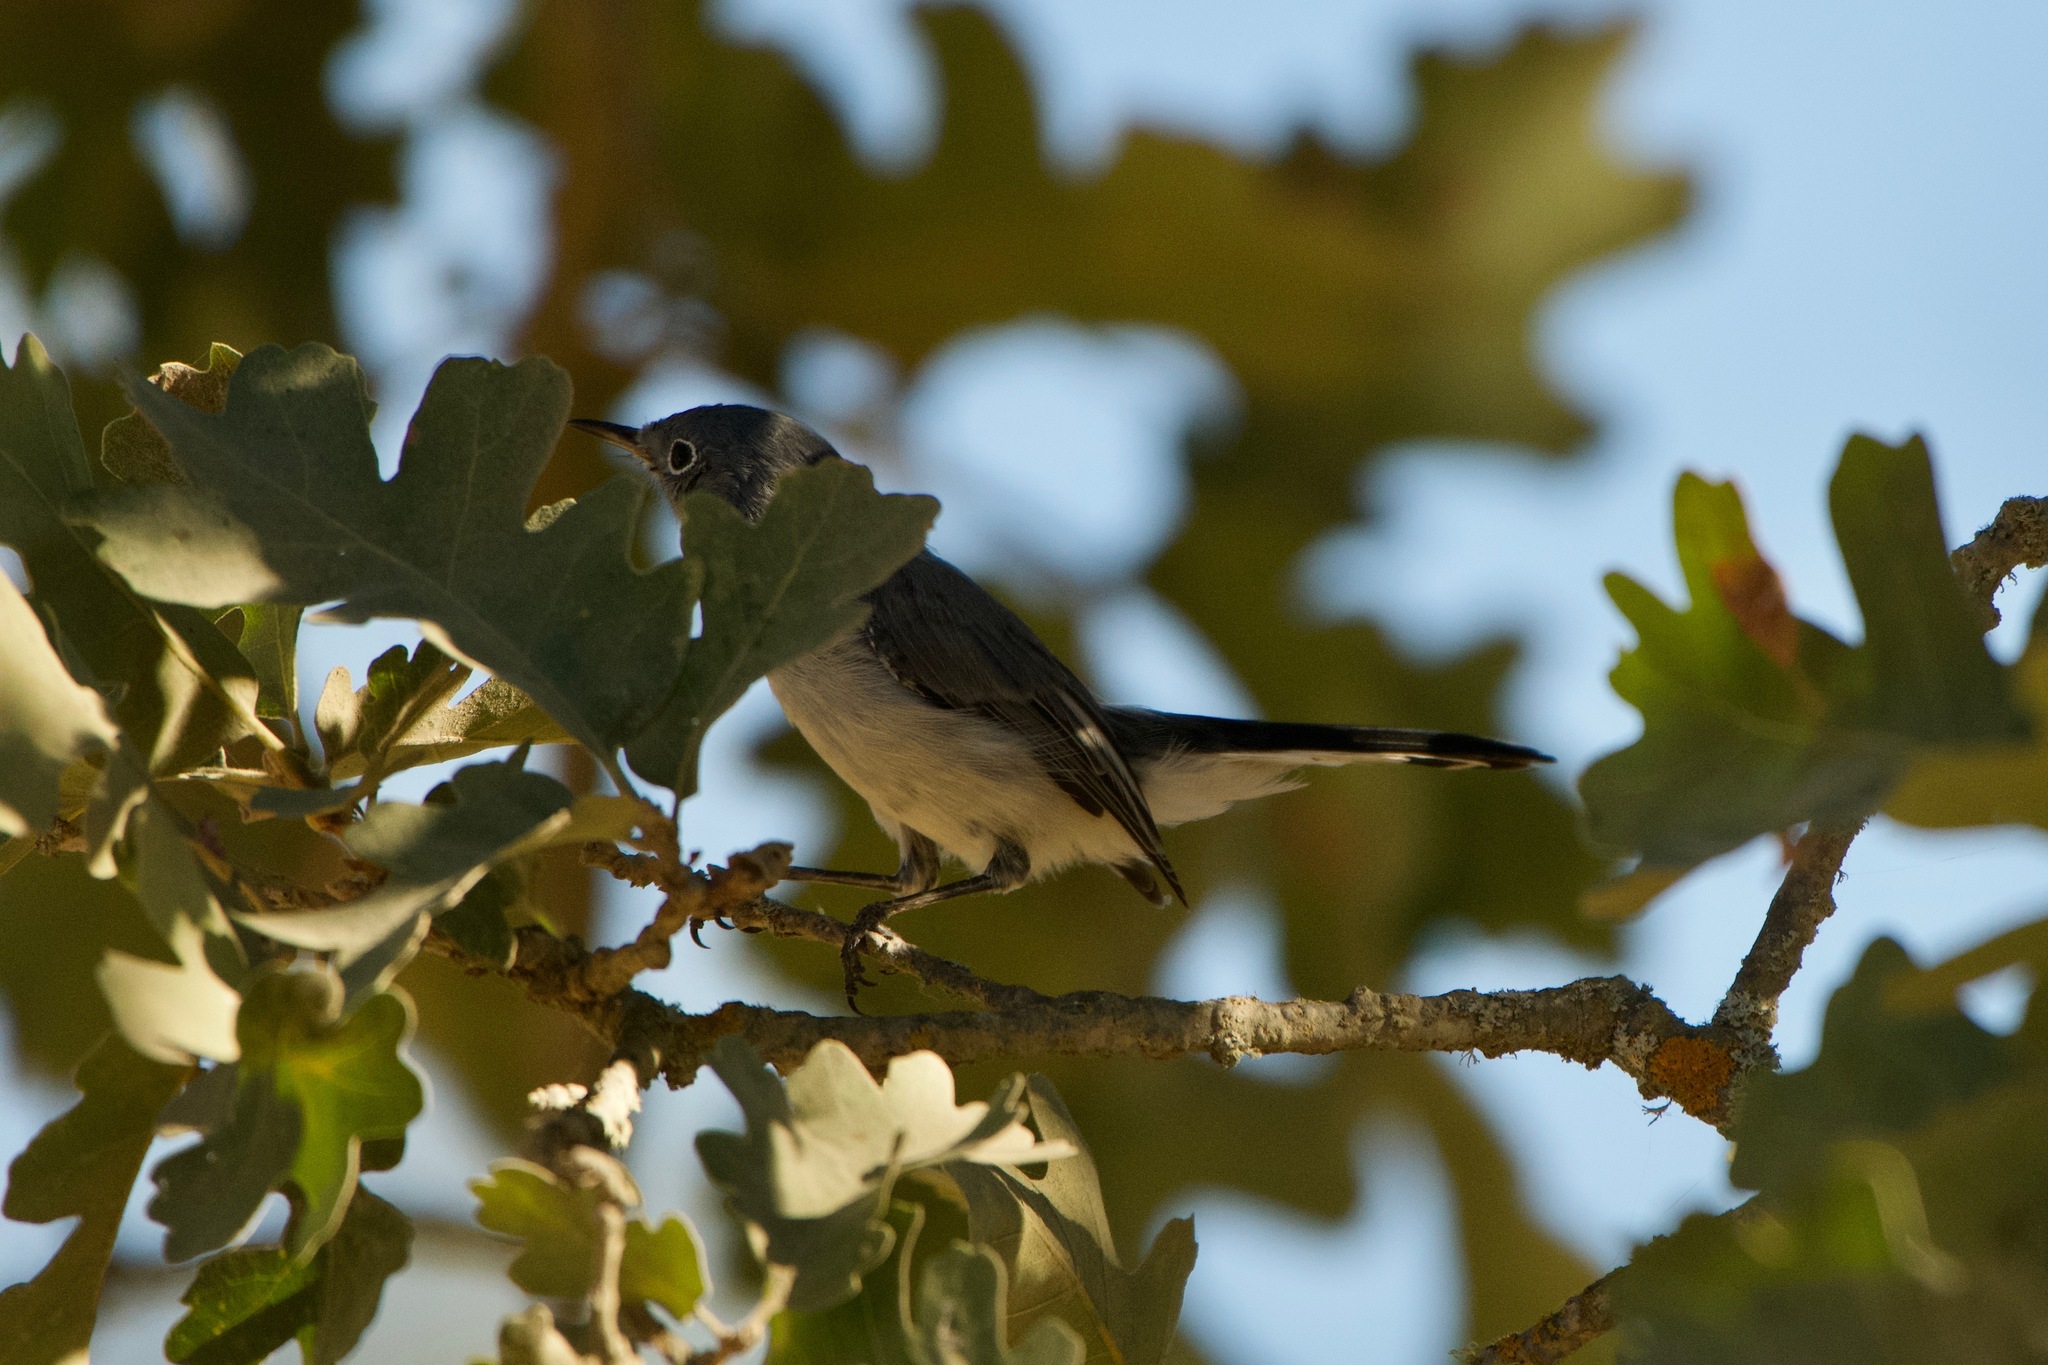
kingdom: Animalia
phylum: Chordata
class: Aves
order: Passeriformes
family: Polioptilidae
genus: Polioptila
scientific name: Polioptila caerulea
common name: Blue-gray gnatcatcher
